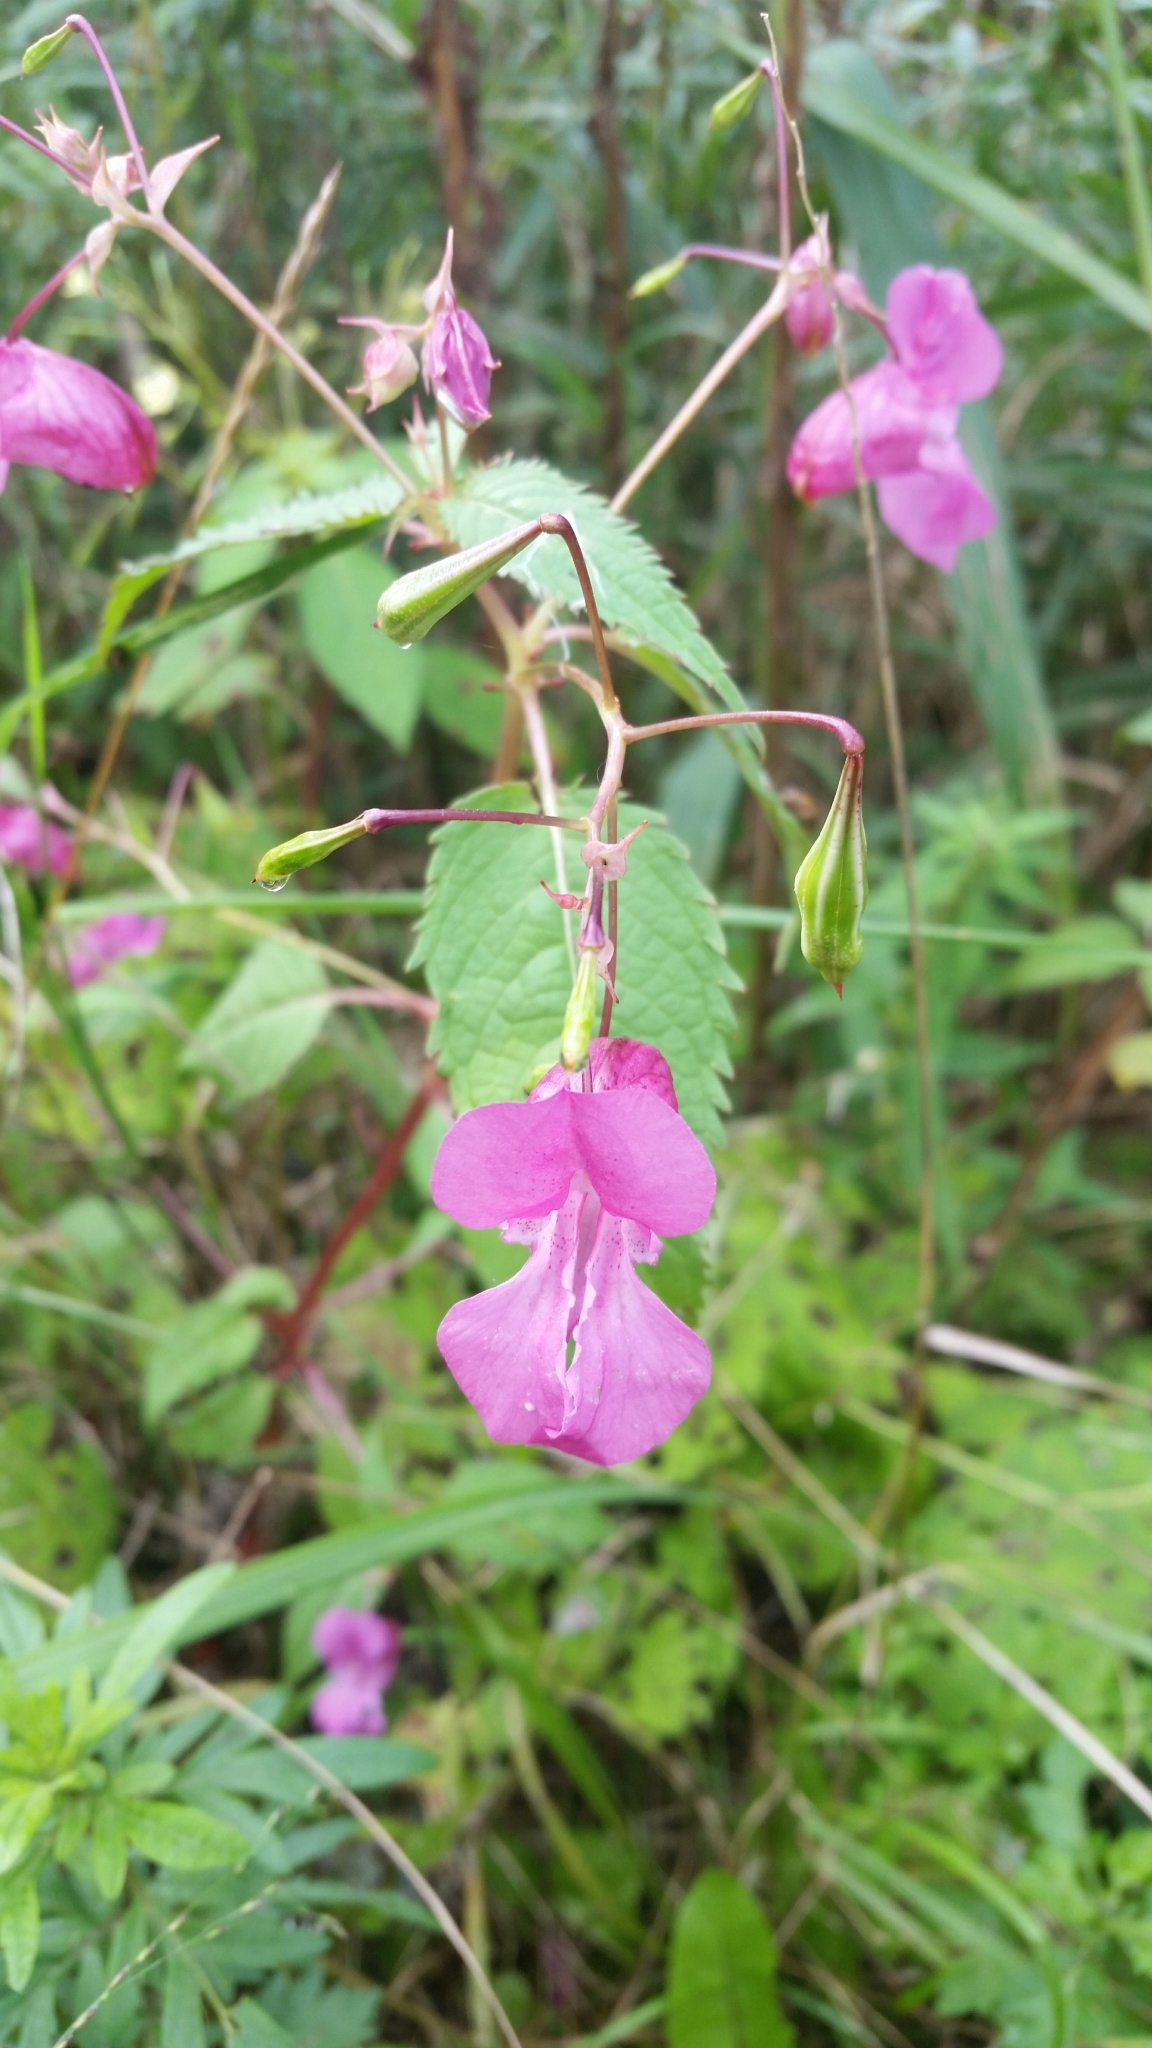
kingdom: Plantae
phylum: Tracheophyta
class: Magnoliopsida
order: Ericales
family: Balsaminaceae
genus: Impatiens
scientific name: Impatiens glandulifera
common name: Himalayan balsam
